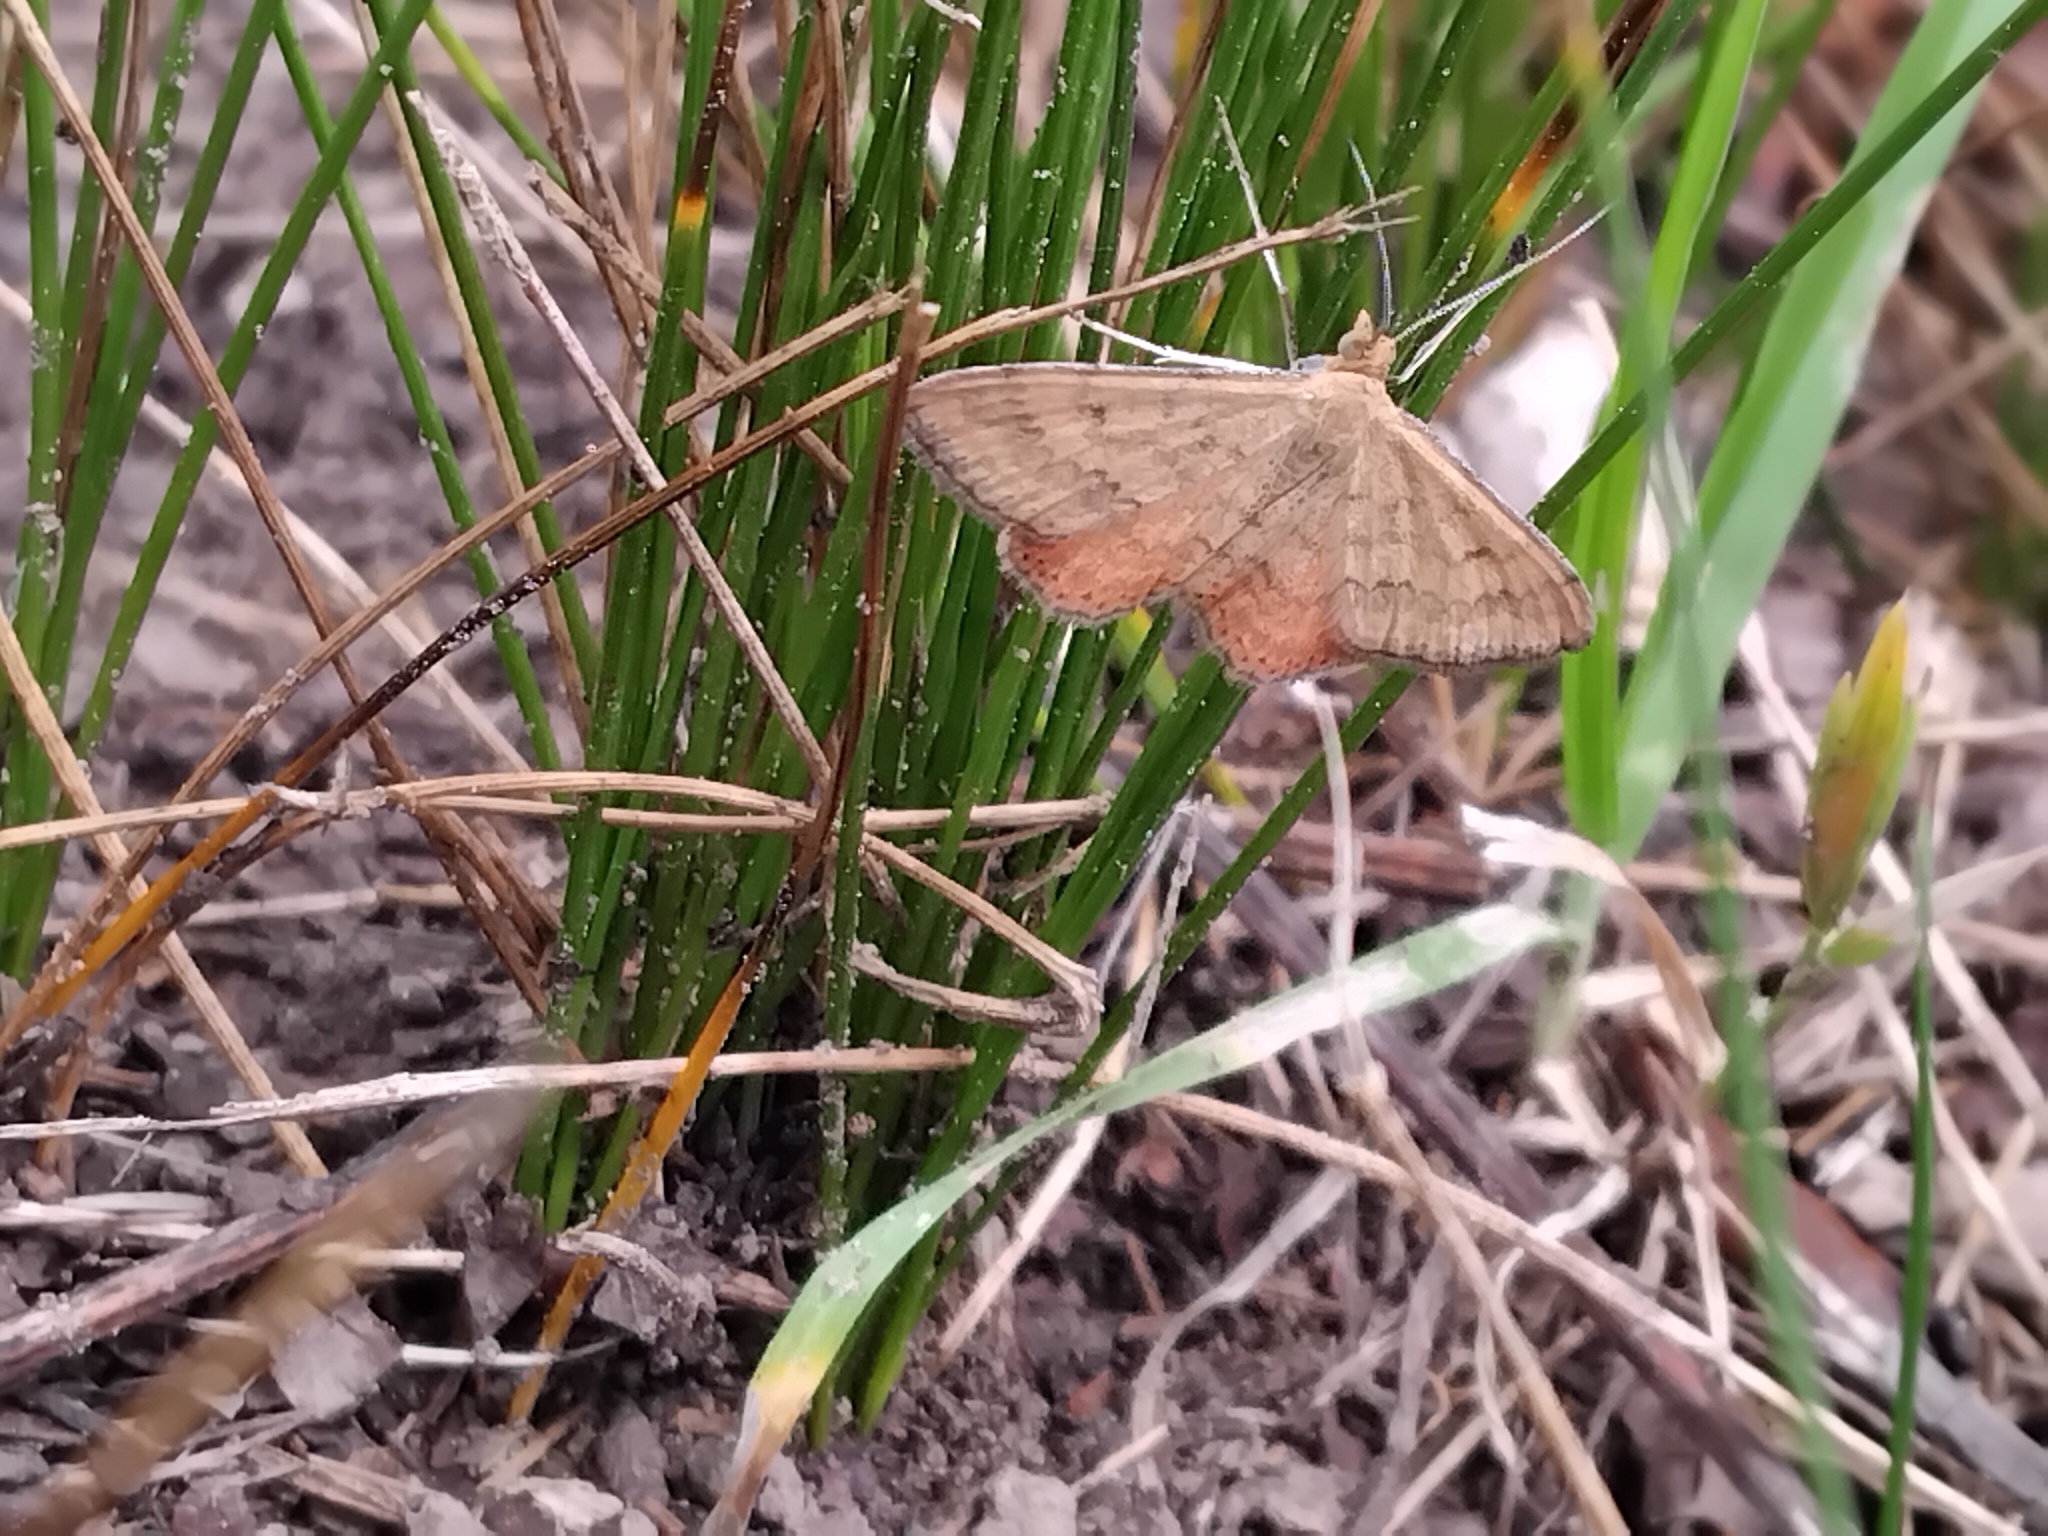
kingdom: Animalia
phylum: Arthropoda
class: Insecta
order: Lepidoptera
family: Geometridae
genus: Scopula
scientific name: Scopula rubraria
